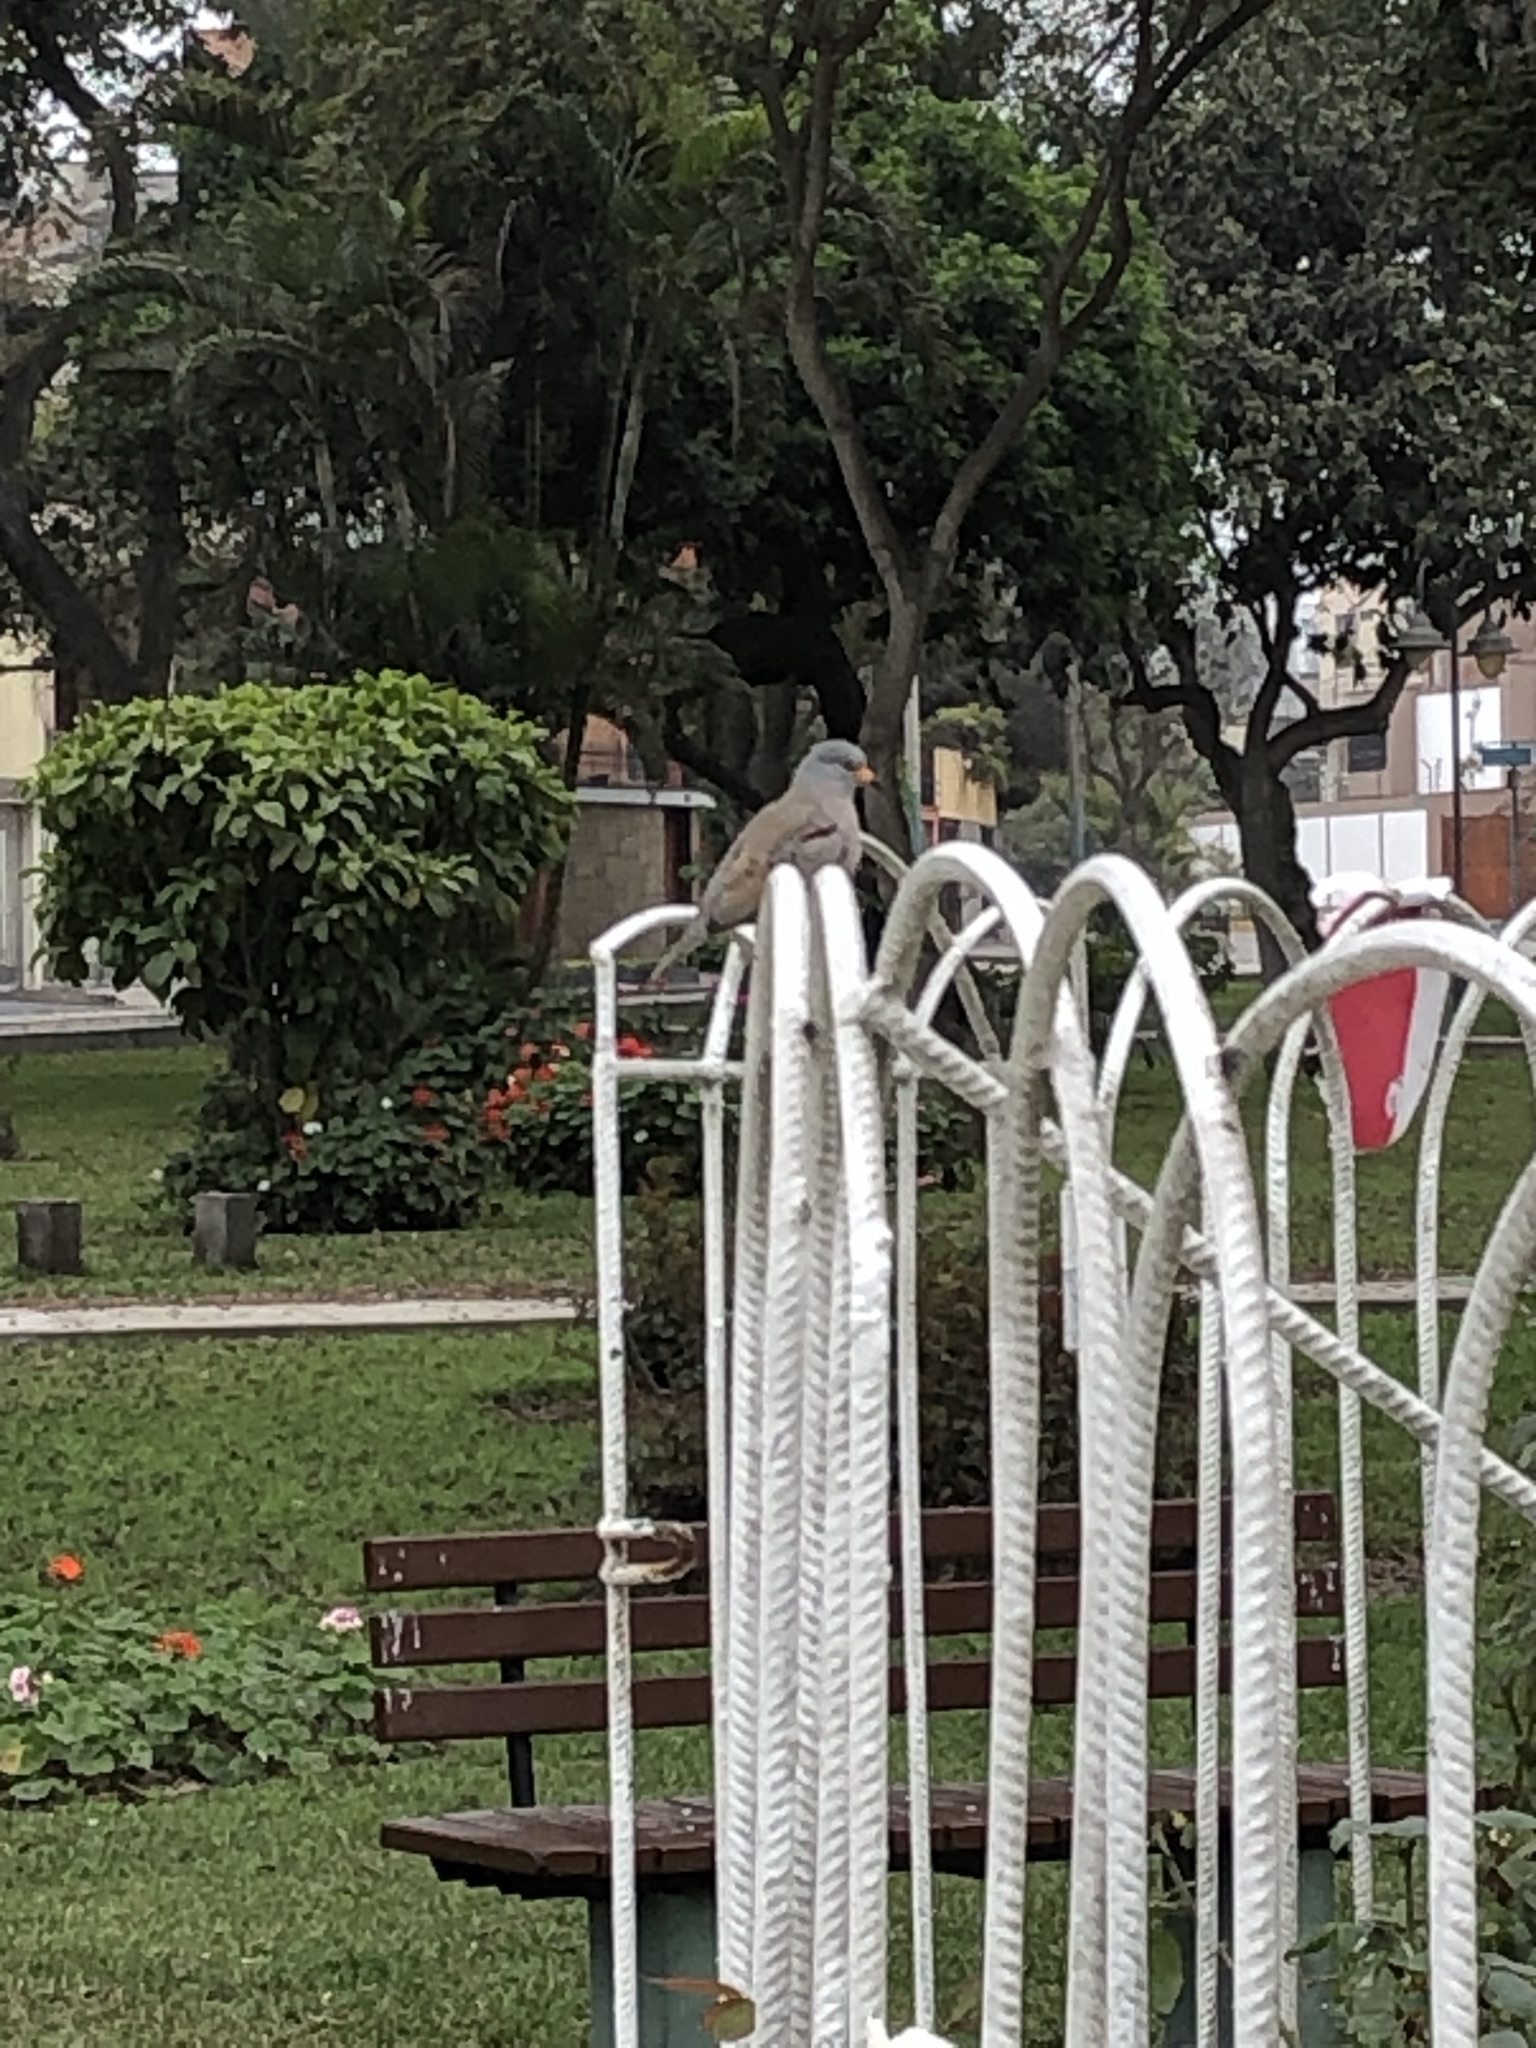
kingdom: Animalia
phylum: Chordata
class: Aves
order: Columbiformes
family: Columbidae
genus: Columbina
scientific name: Columbina cruziana
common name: Croaking ground dove
